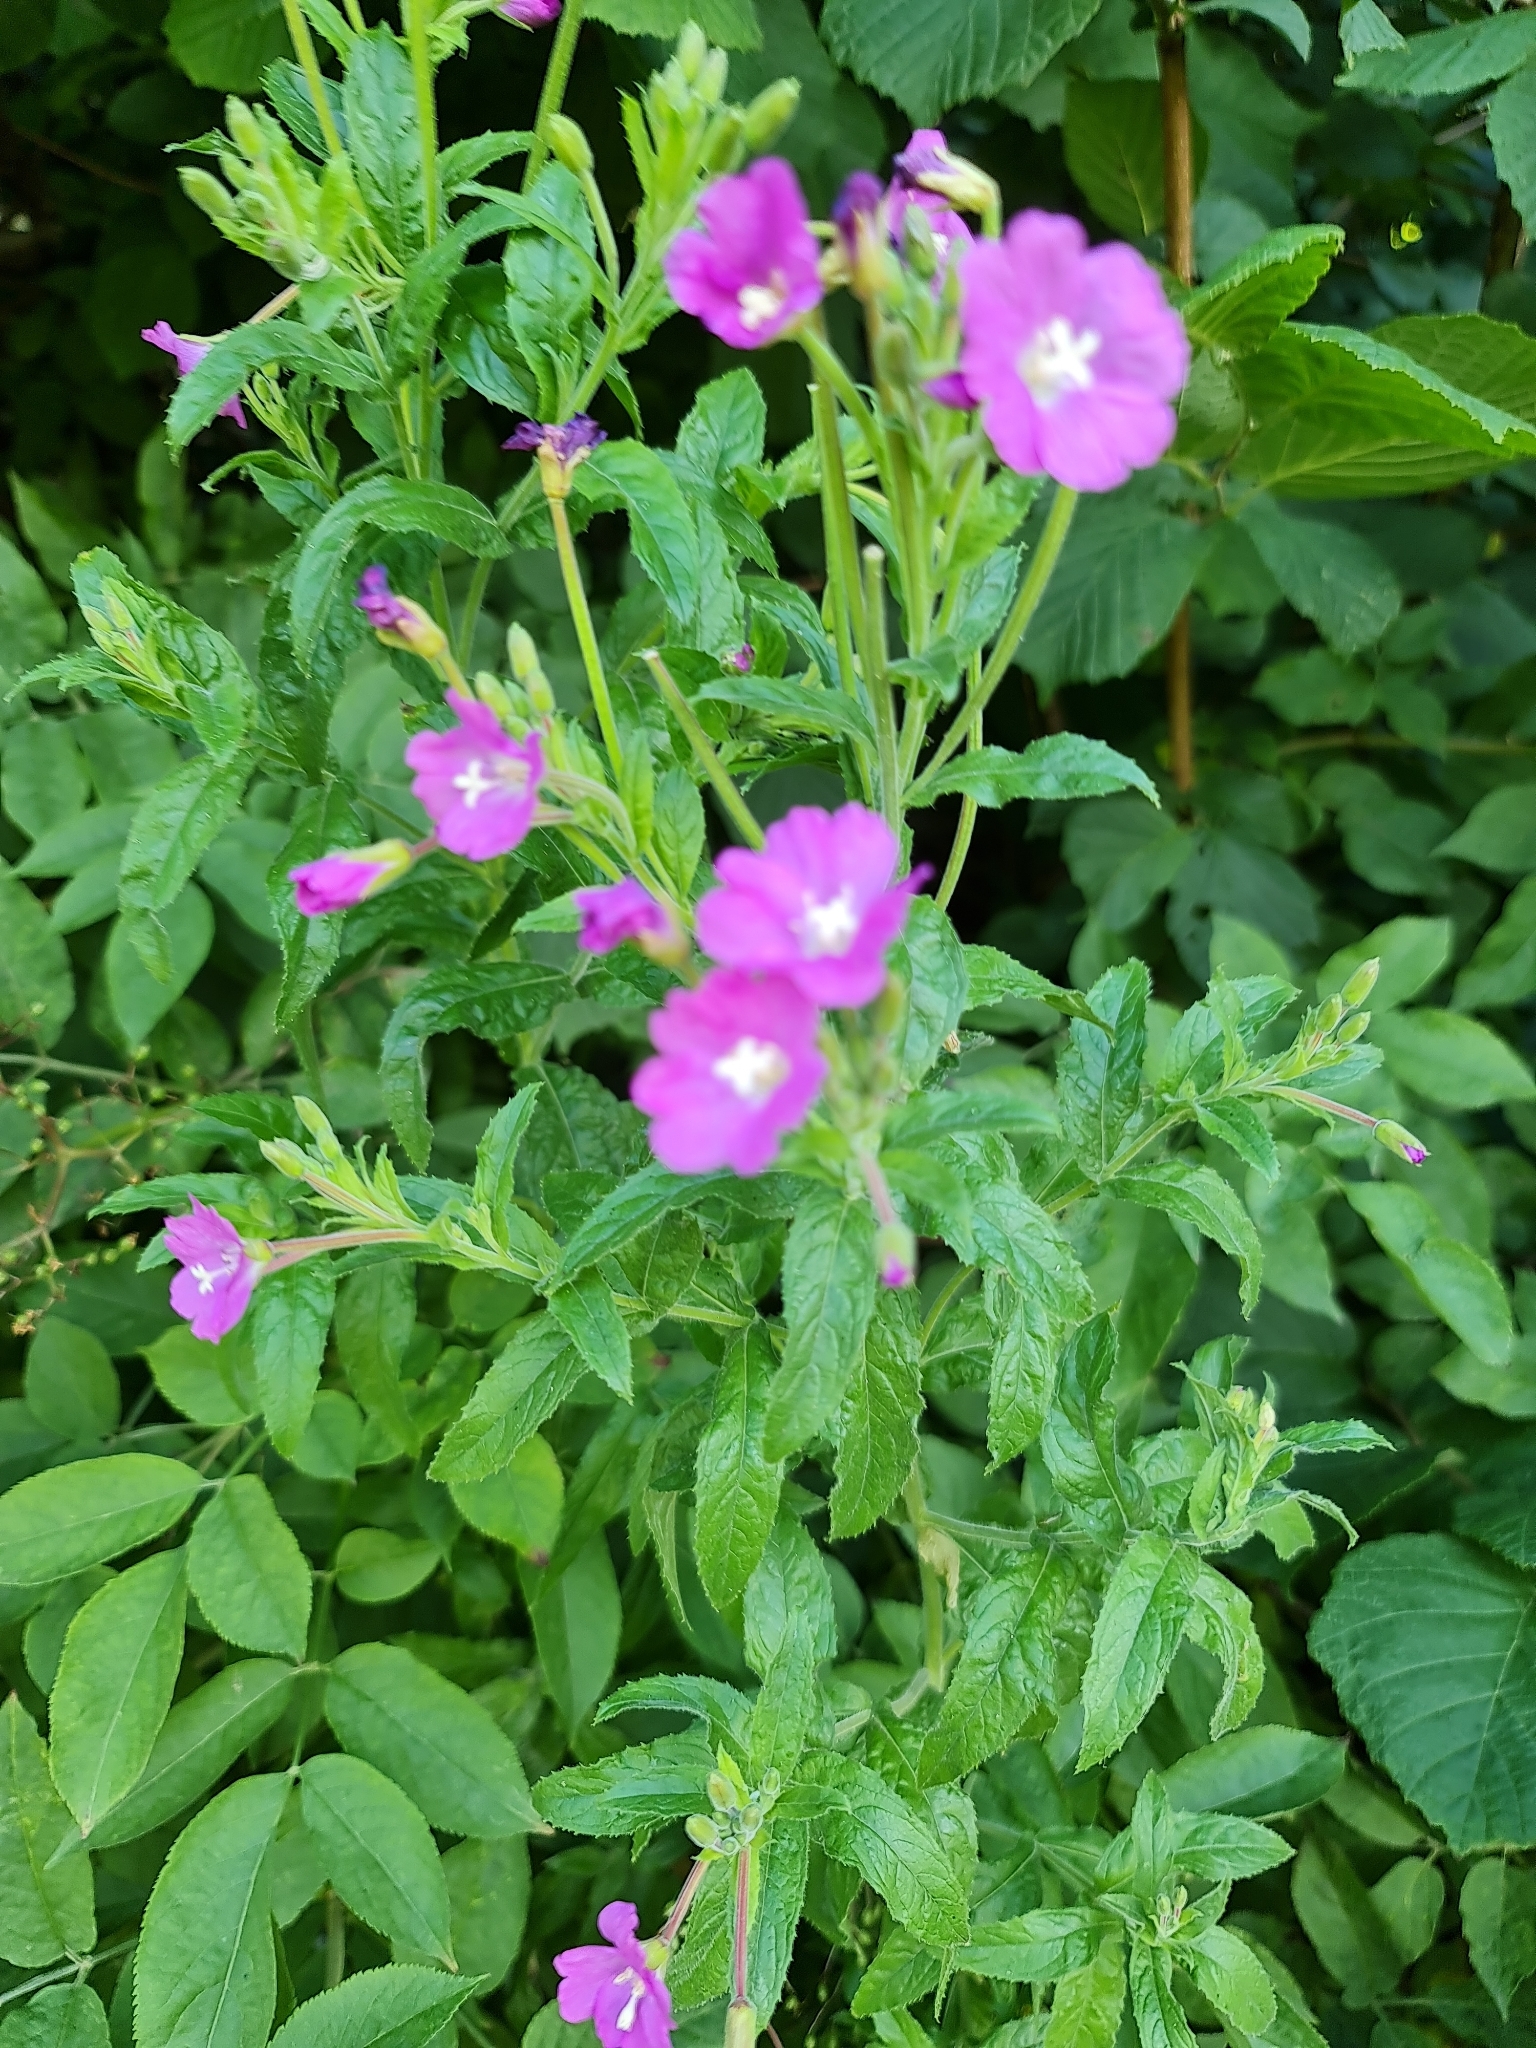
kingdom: Plantae
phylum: Tracheophyta
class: Magnoliopsida
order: Myrtales
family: Onagraceae
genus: Epilobium
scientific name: Epilobium hirsutum
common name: Great willowherb
